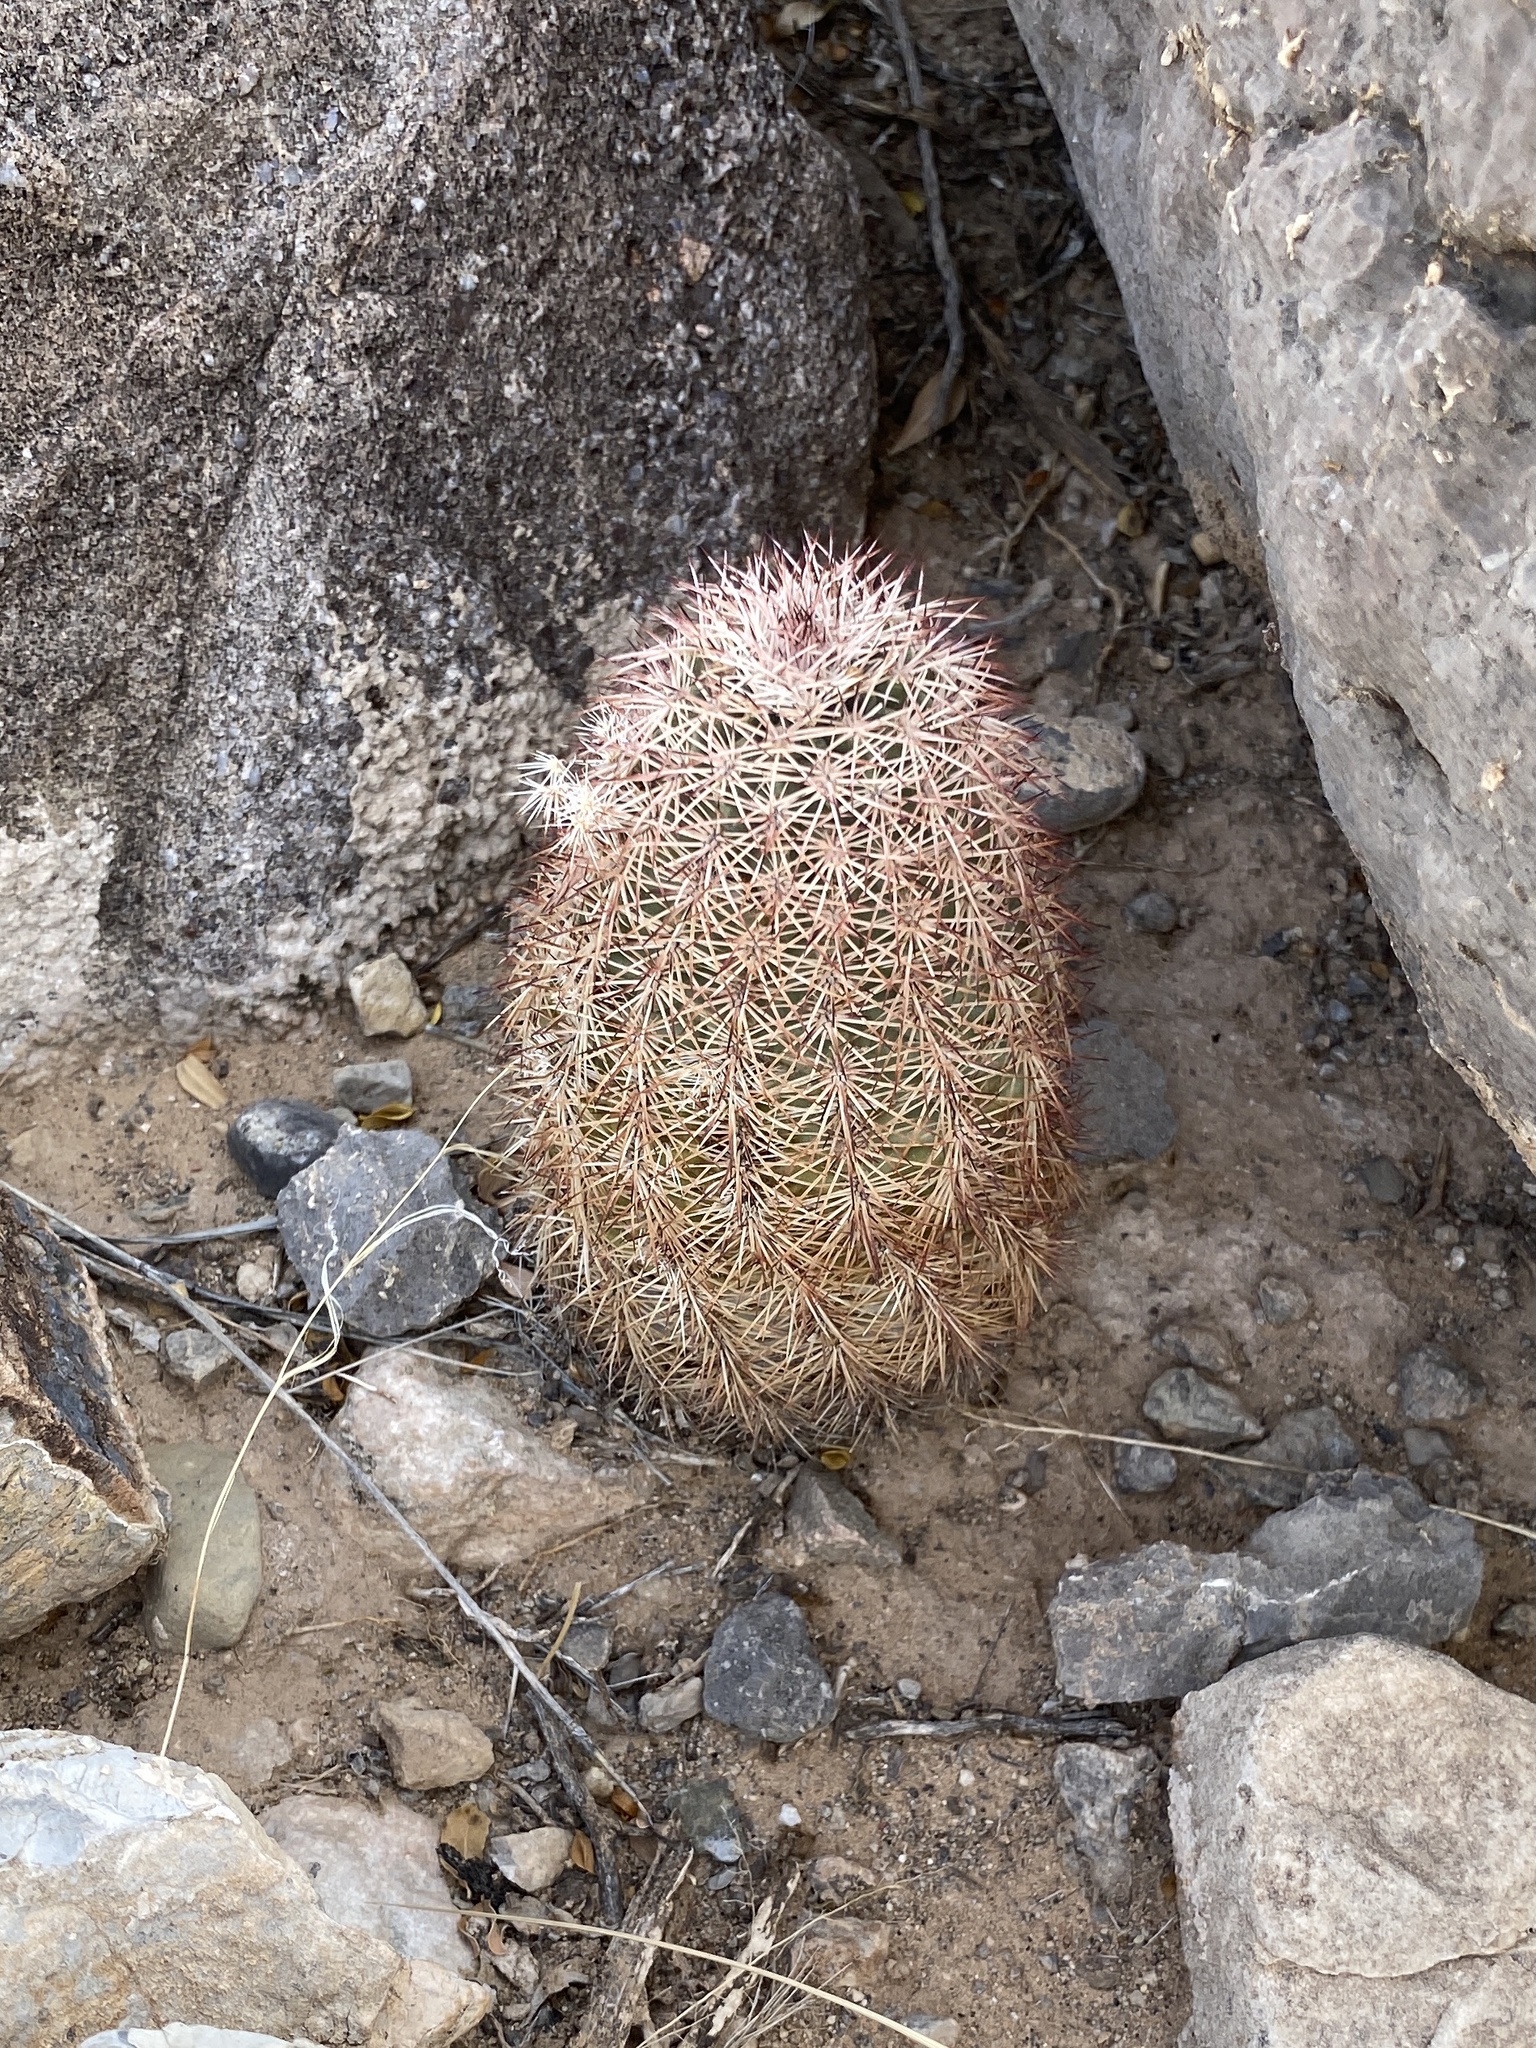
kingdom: Plantae
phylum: Tracheophyta
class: Magnoliopsida
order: Caryophyllales
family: Cactaceae
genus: Echinocereus
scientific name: Echinocereus dasyacanthus
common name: Spiny hedgehog cactus
